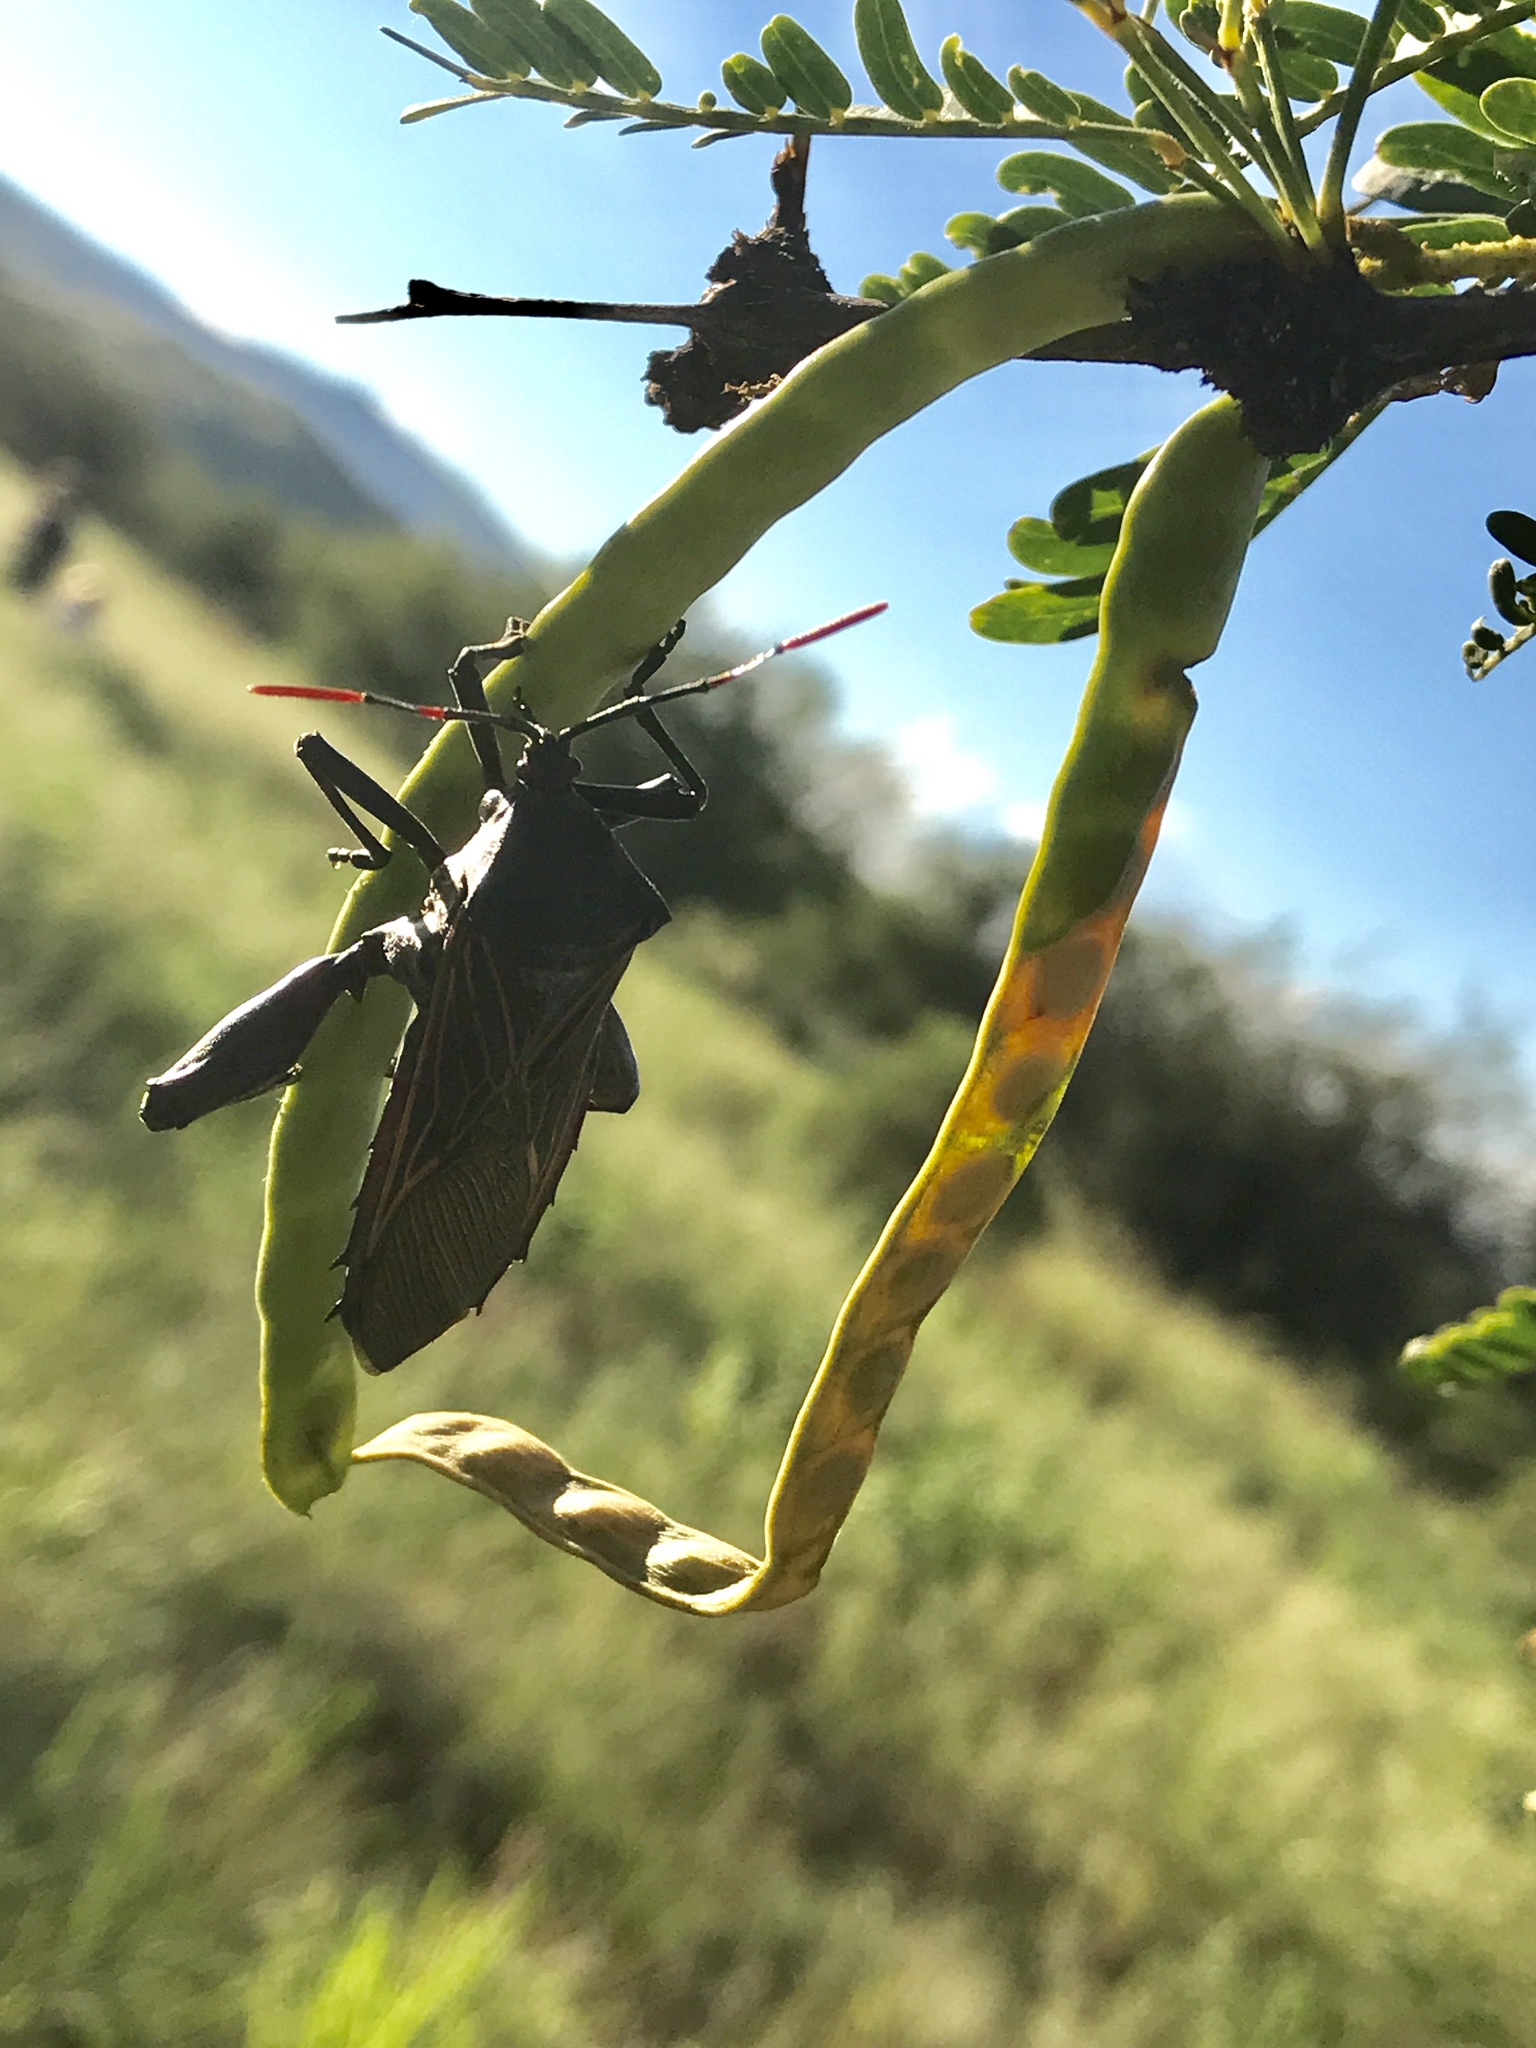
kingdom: Animalia
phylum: Arthropoda
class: Insecta
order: Hemiptera
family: Coreidae
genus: Thasus
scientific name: Thasus neocalifornicus
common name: Giant mesquite bug
